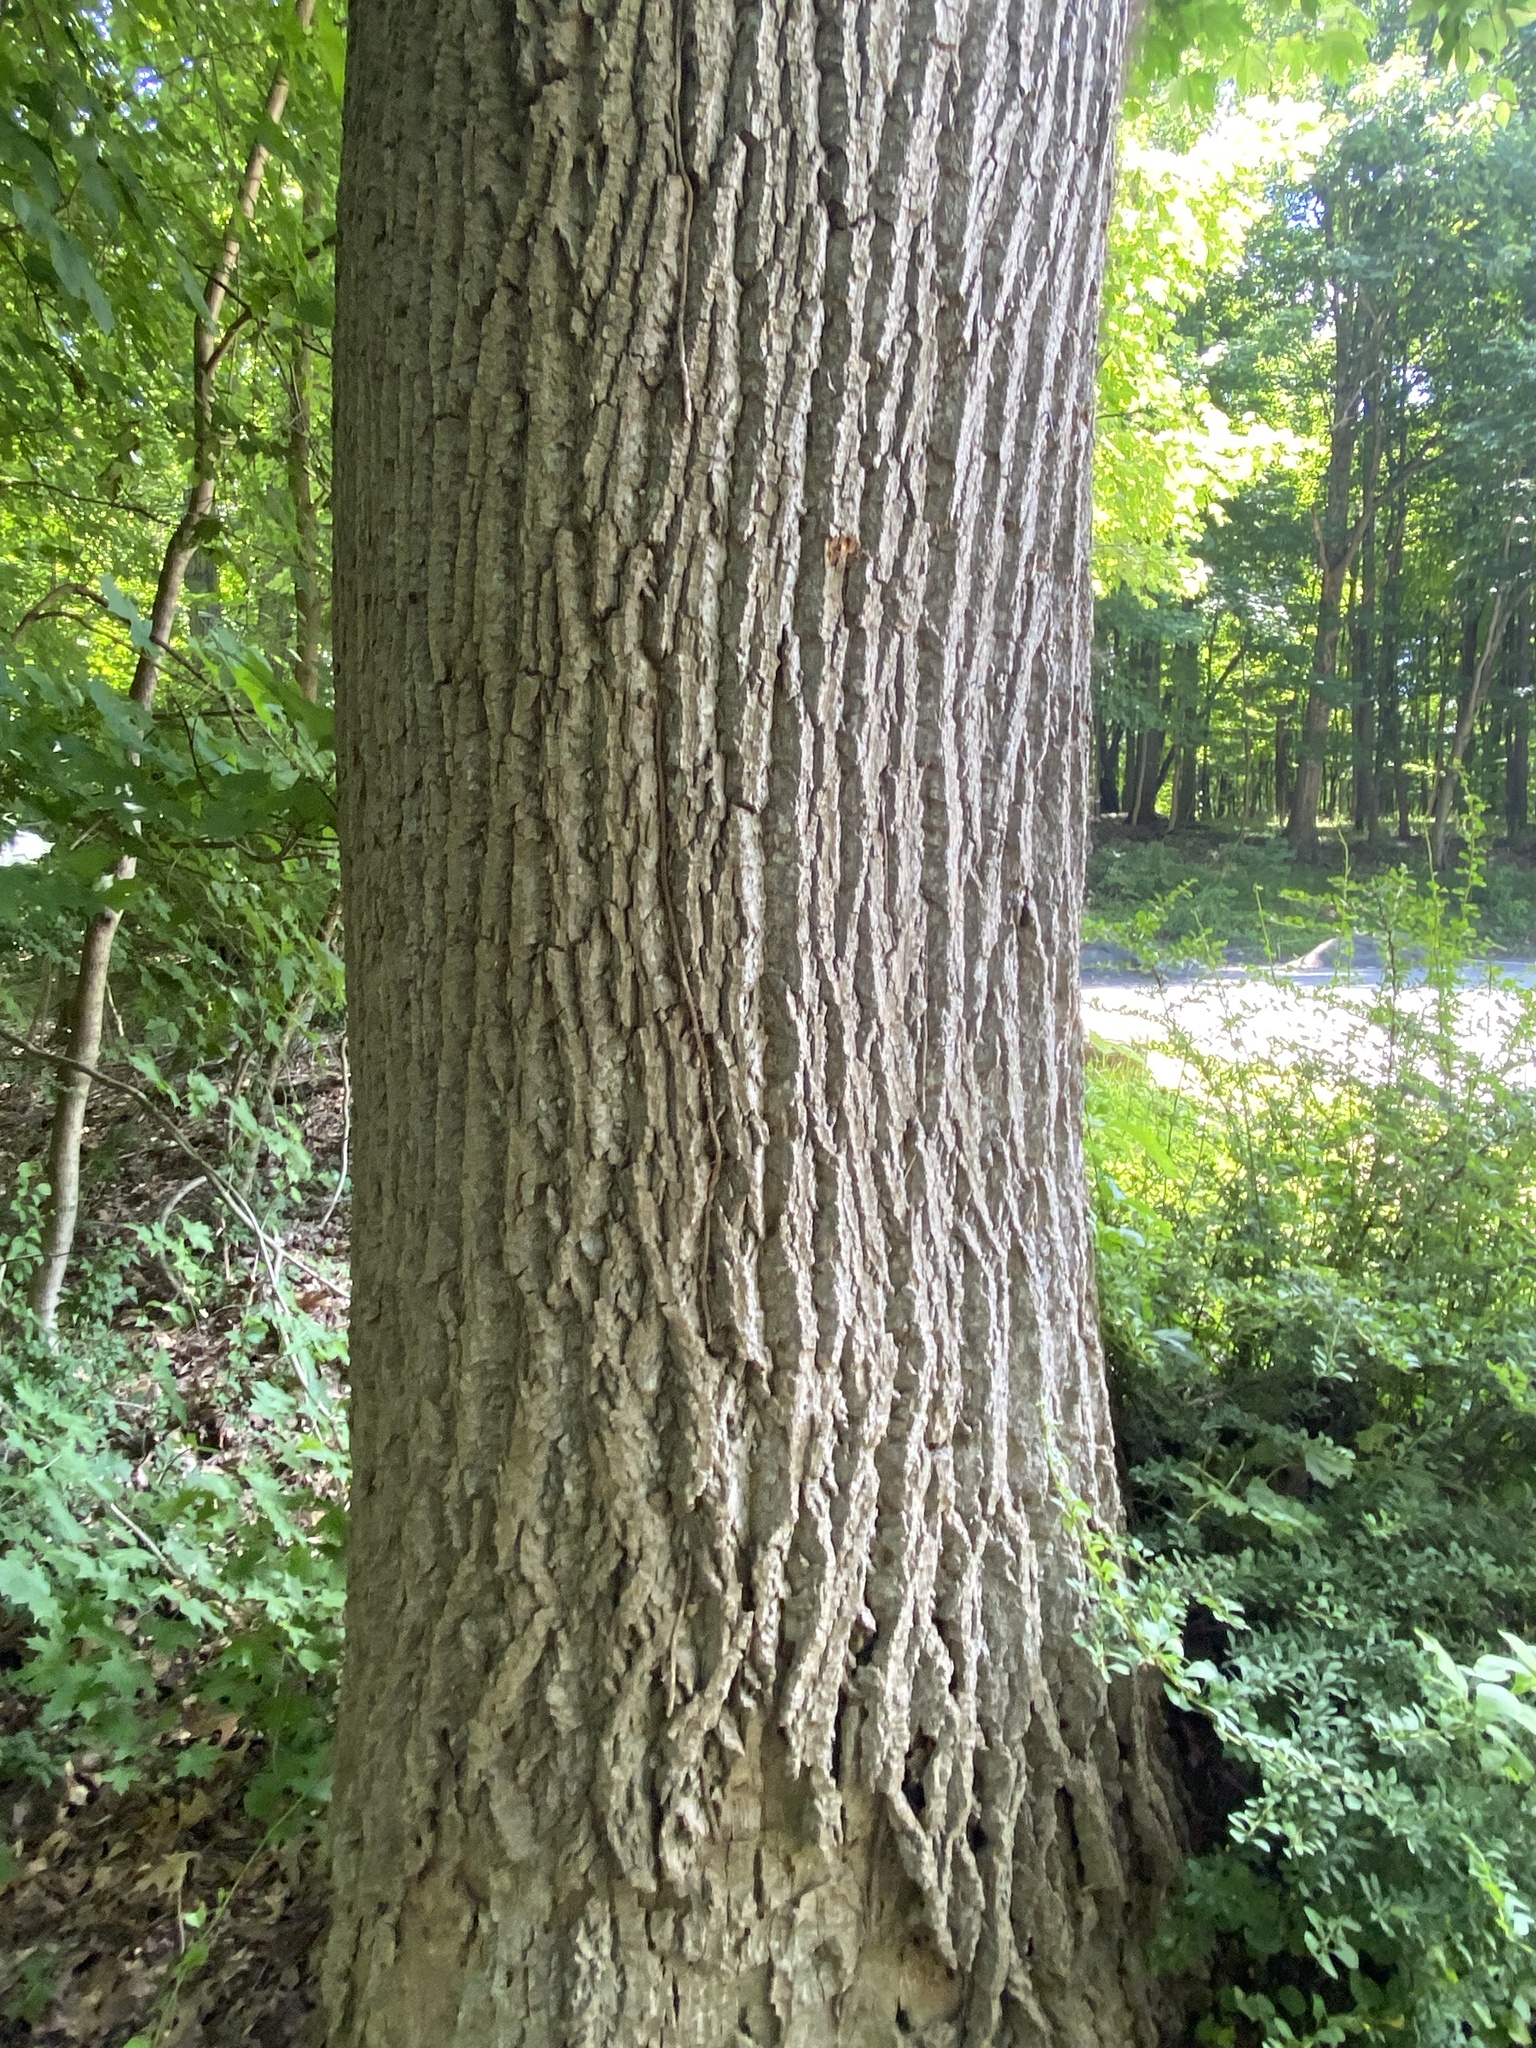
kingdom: Plantae
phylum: Tracheophyta
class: Magnoliopsida
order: Magnoliales
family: Magnoliaceae
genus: Liriodendron
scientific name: Liriodendron tulipifera
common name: Tulip tree
